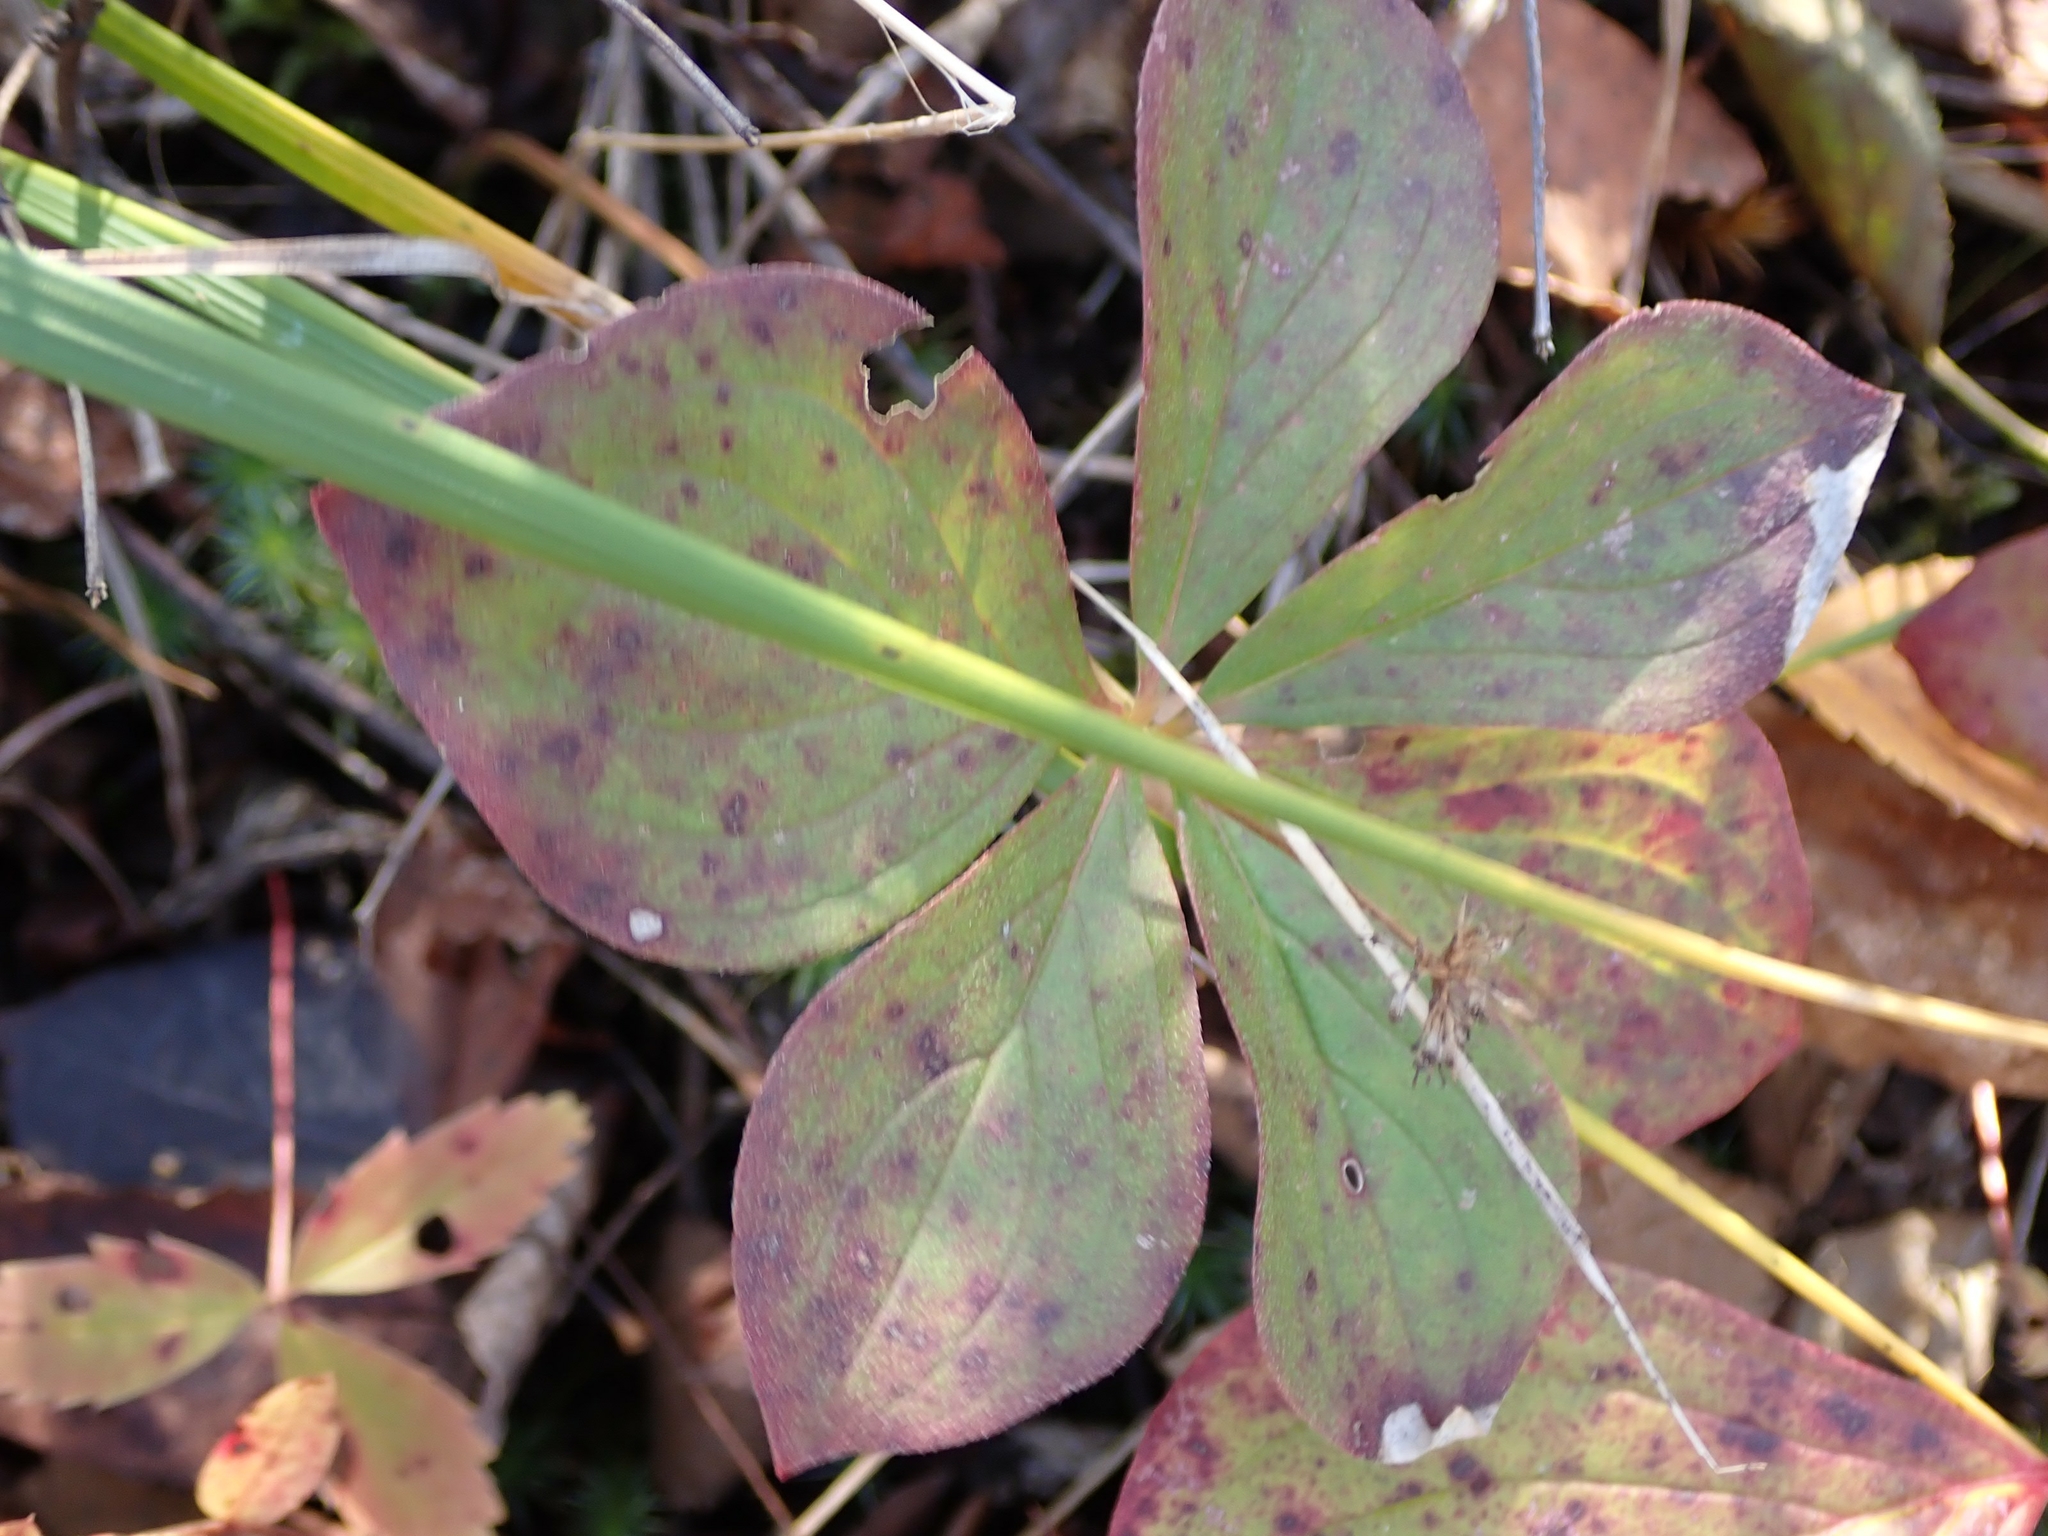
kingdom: Plantae
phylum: Tracheophyta
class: Magnoliopsida
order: Cornales
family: Cornaceae
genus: Cornus
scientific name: Cornus canadensis
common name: Creeping dogwood
